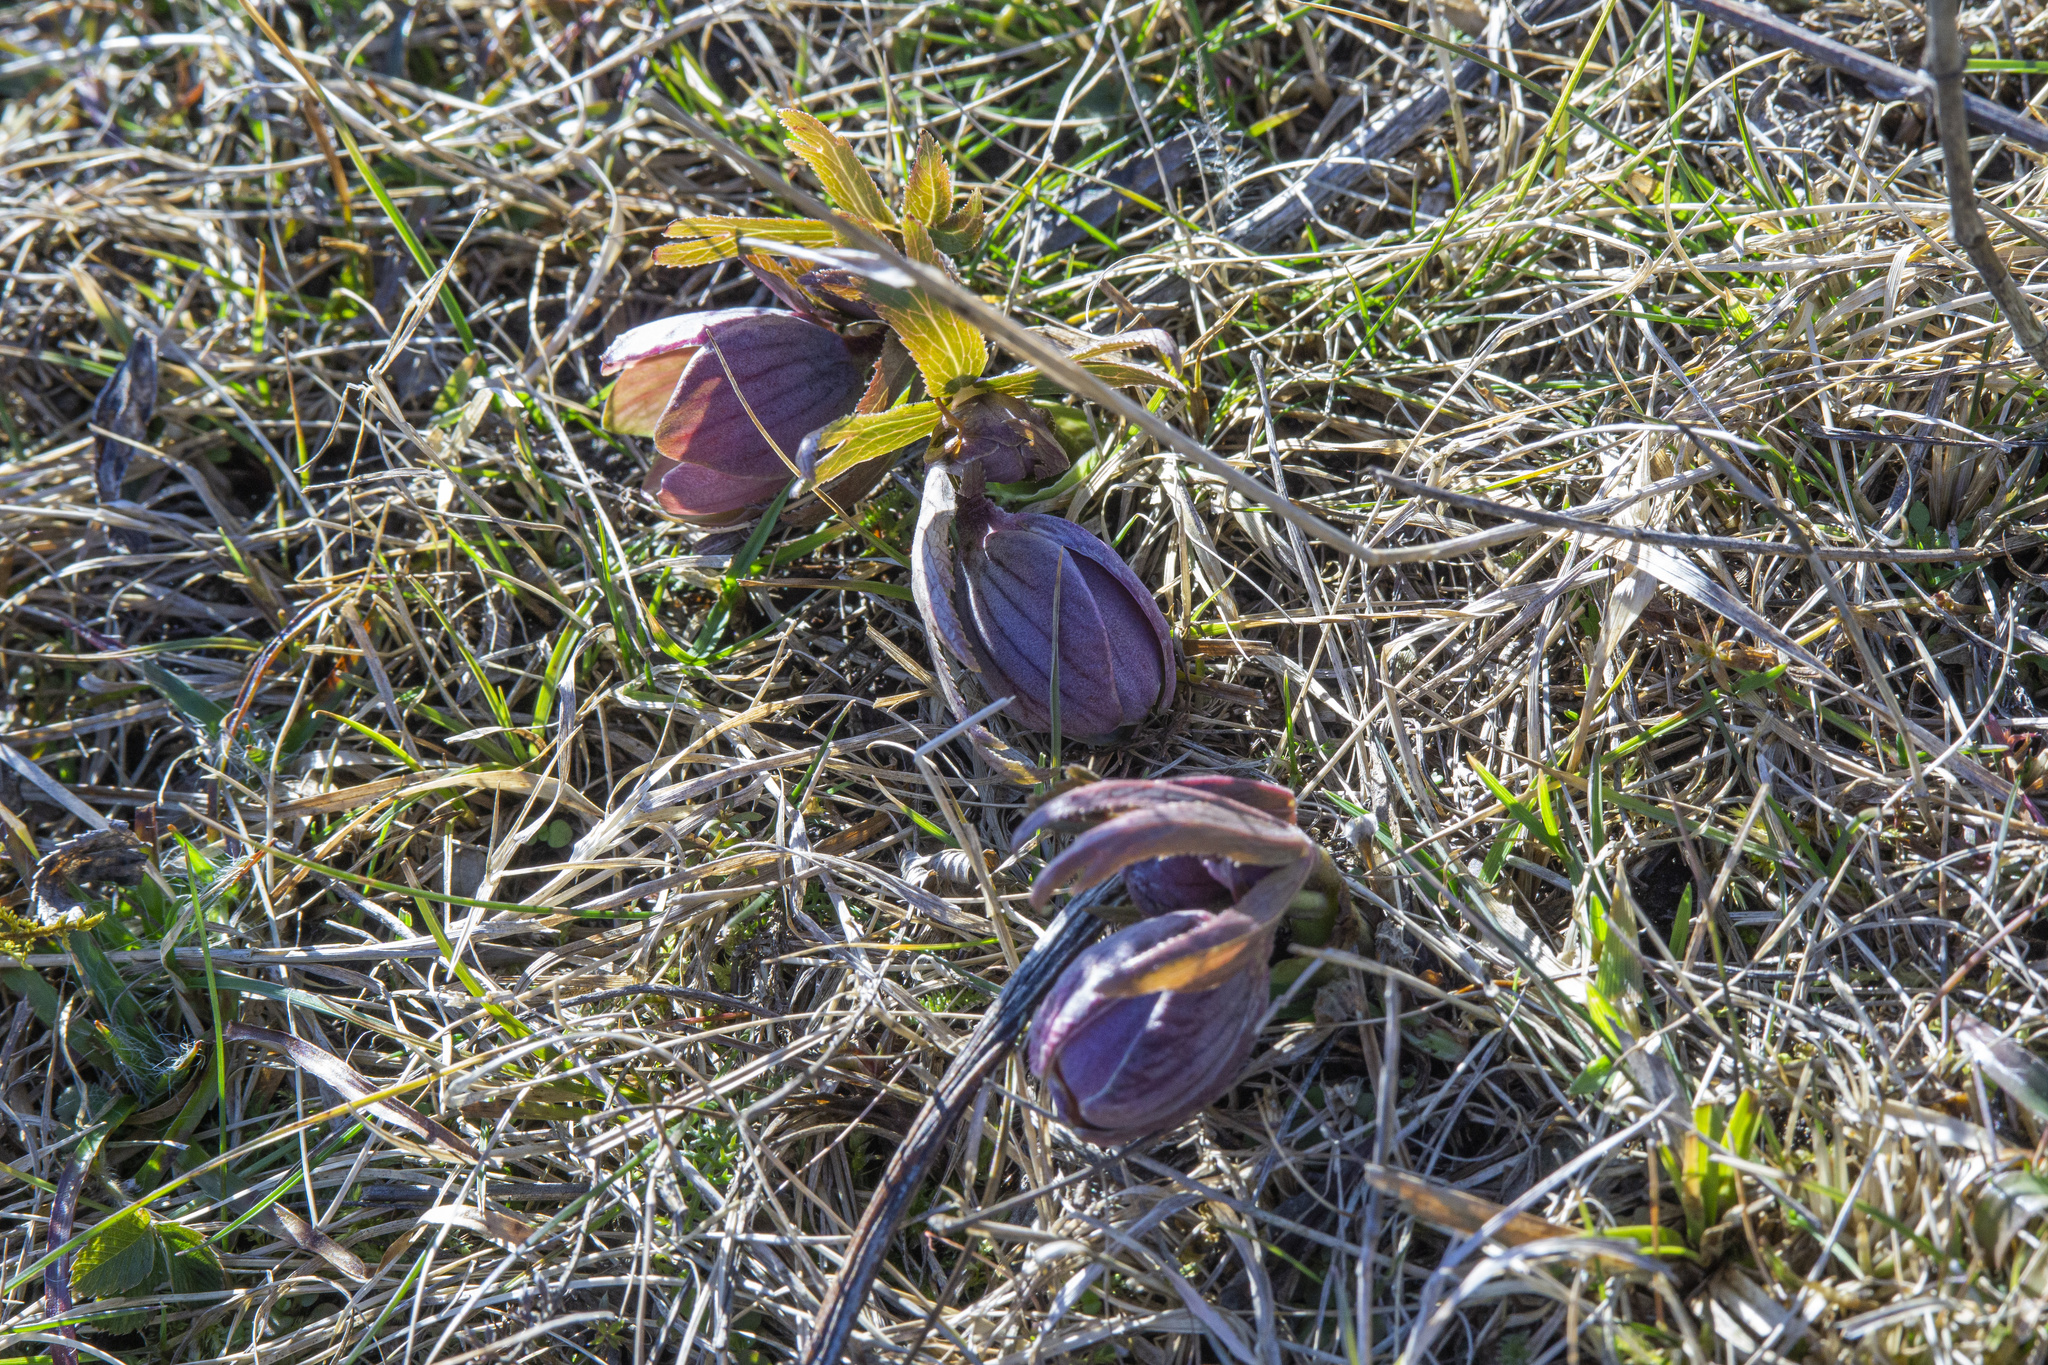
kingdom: Plantae
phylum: Tracheophyta
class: Magnoliopsida
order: Ranunculales
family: Ranunculaceae
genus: Helleborus
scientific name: Helleborus purpurascens
